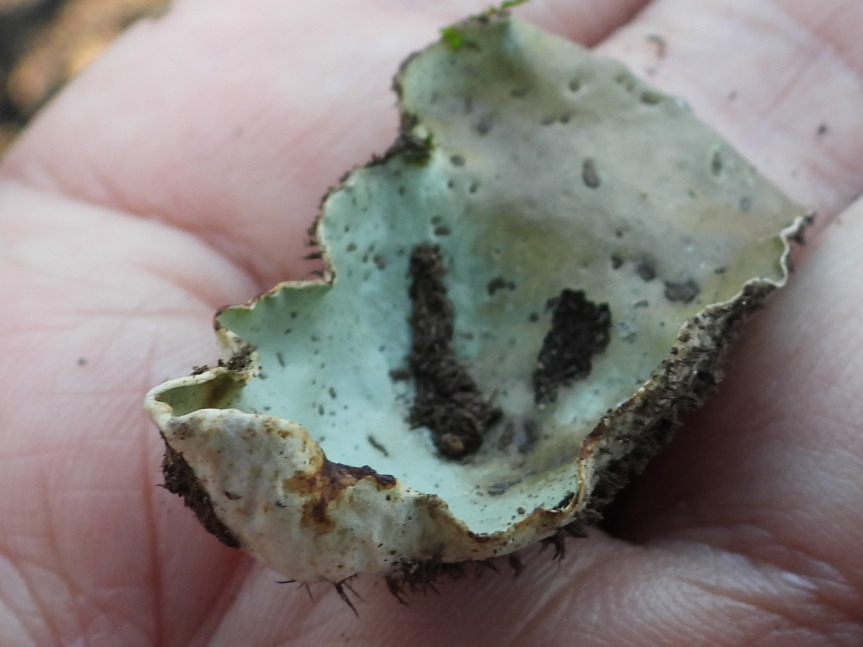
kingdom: Fungi
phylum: Ascomycota
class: Lecanoromycetes
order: Peltigerales
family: Peltigeraceae
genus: Peltigera
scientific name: Peltigera aphthosa
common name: Common freckle pelt lichen
